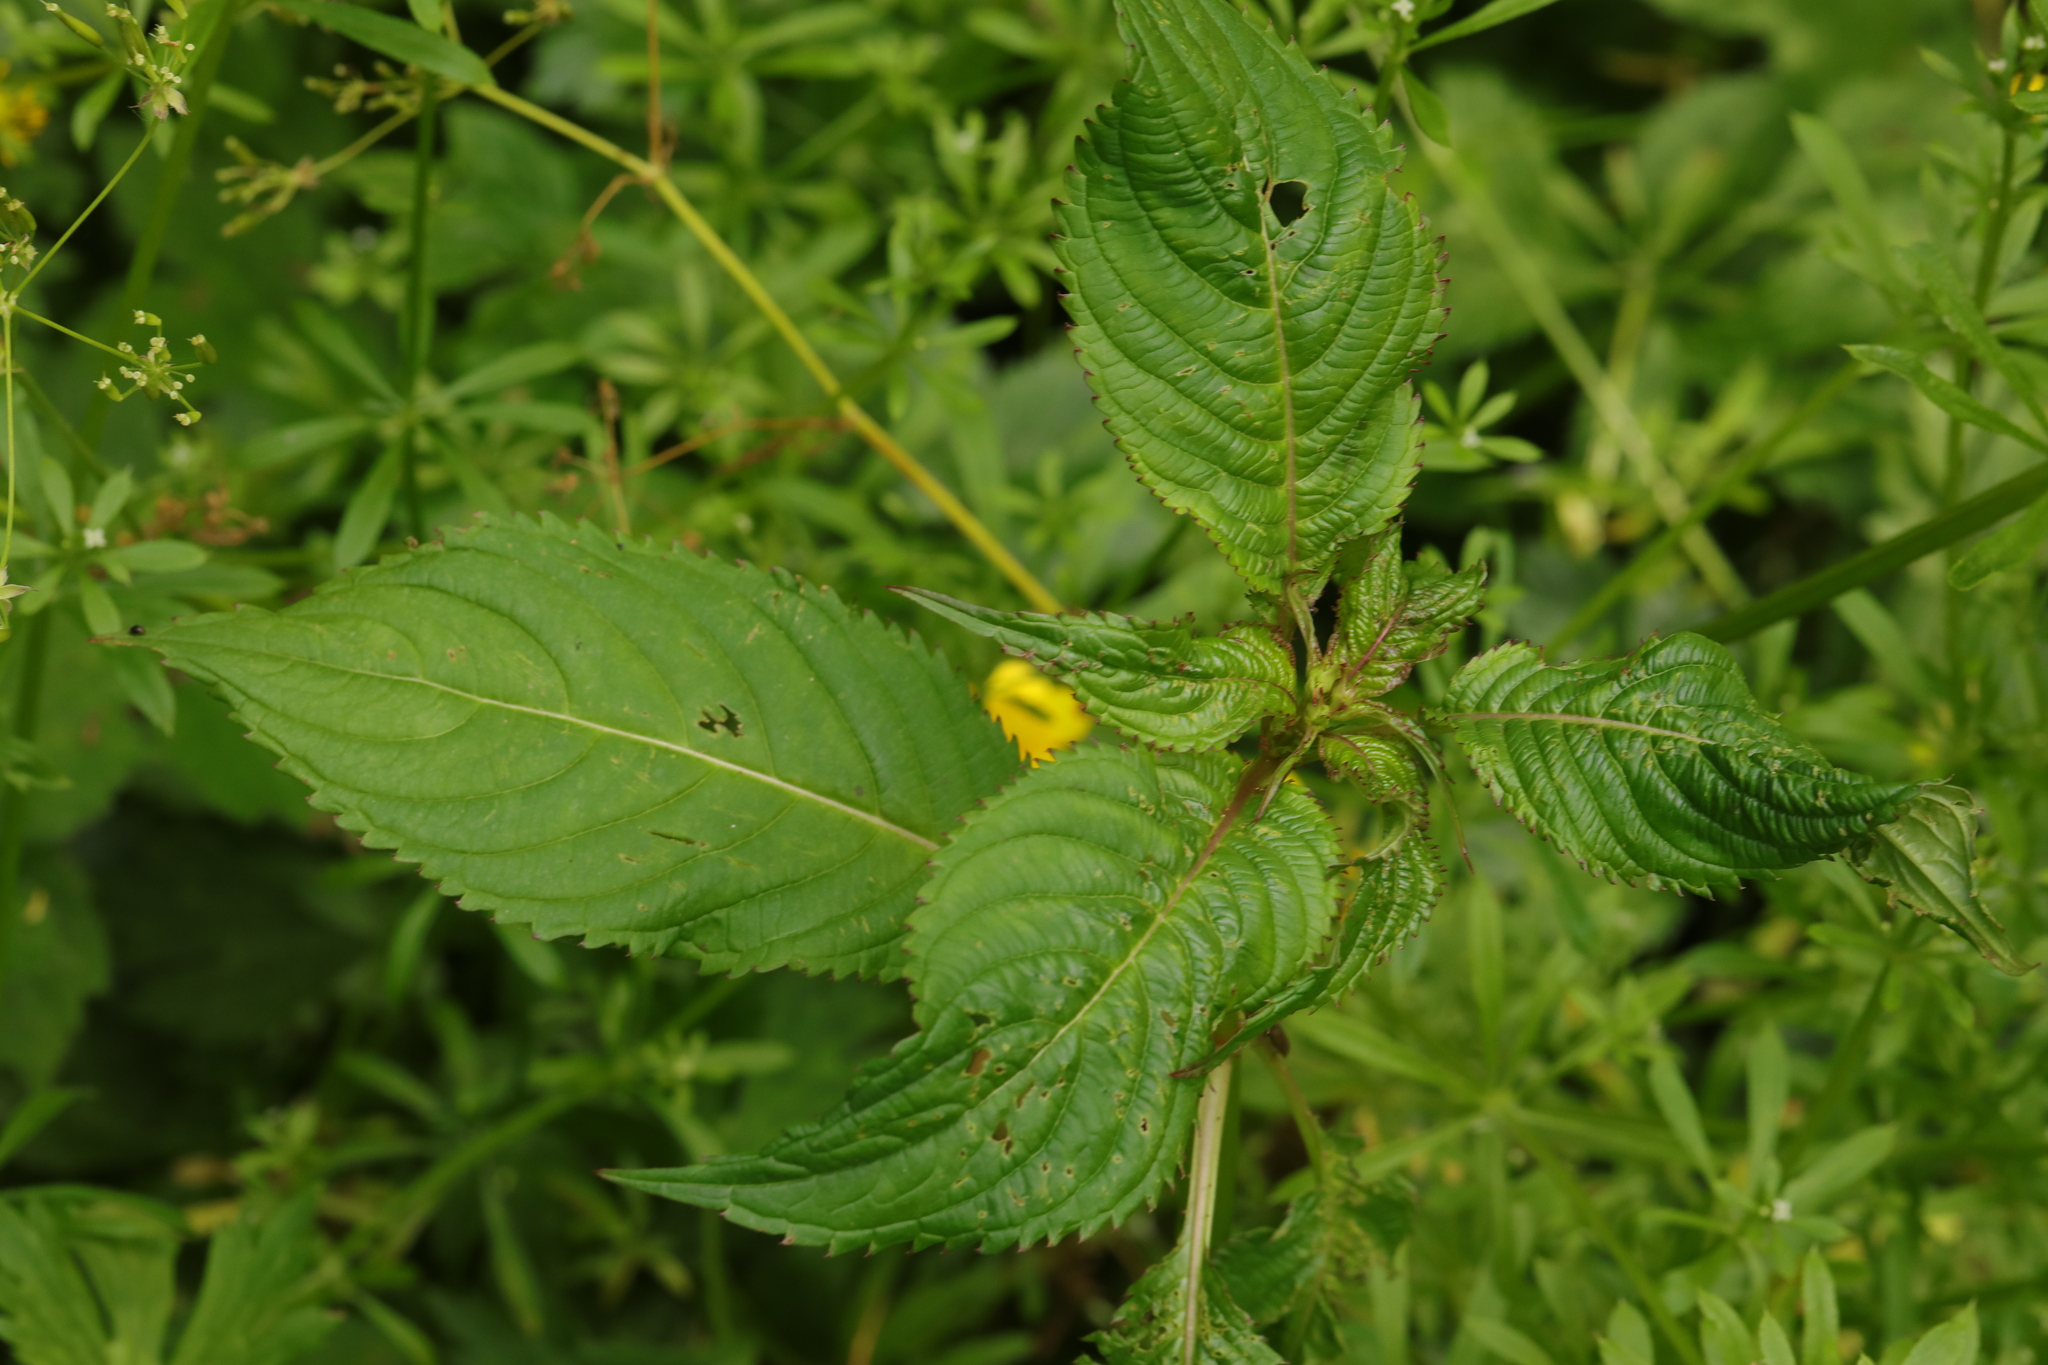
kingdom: Plantae
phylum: Tracheophyta
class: Magnoliopsida
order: Ericales
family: Balsaminaceae
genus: Impatiens
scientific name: Impatiens glandulifera
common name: Himalayan balsam
